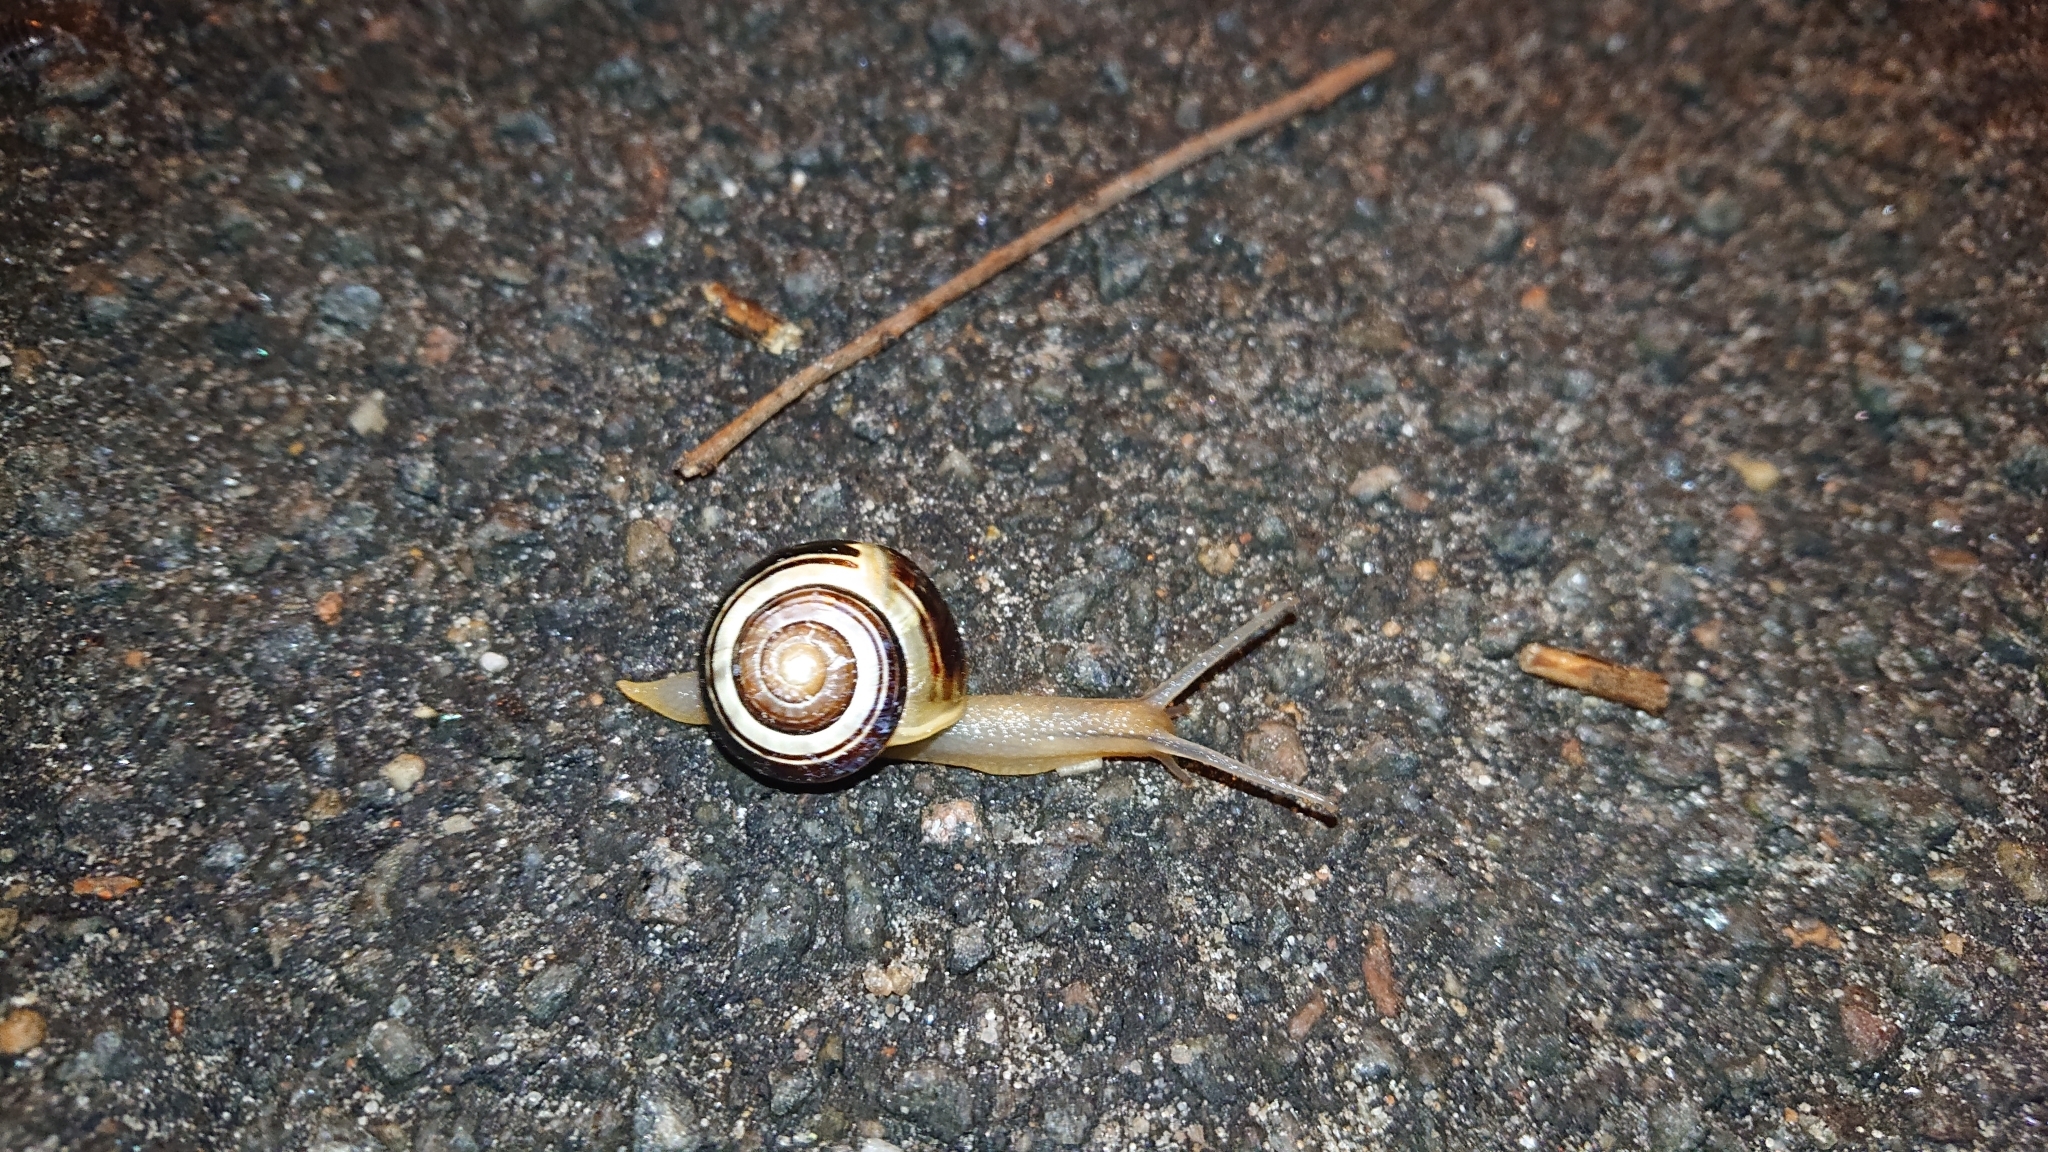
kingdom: Animalia
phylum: Mollusca
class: Gastropoda
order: Stylommatophora
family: Helicidae
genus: Cepaea
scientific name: Cepaea hortensis
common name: White-lip gardensnail
